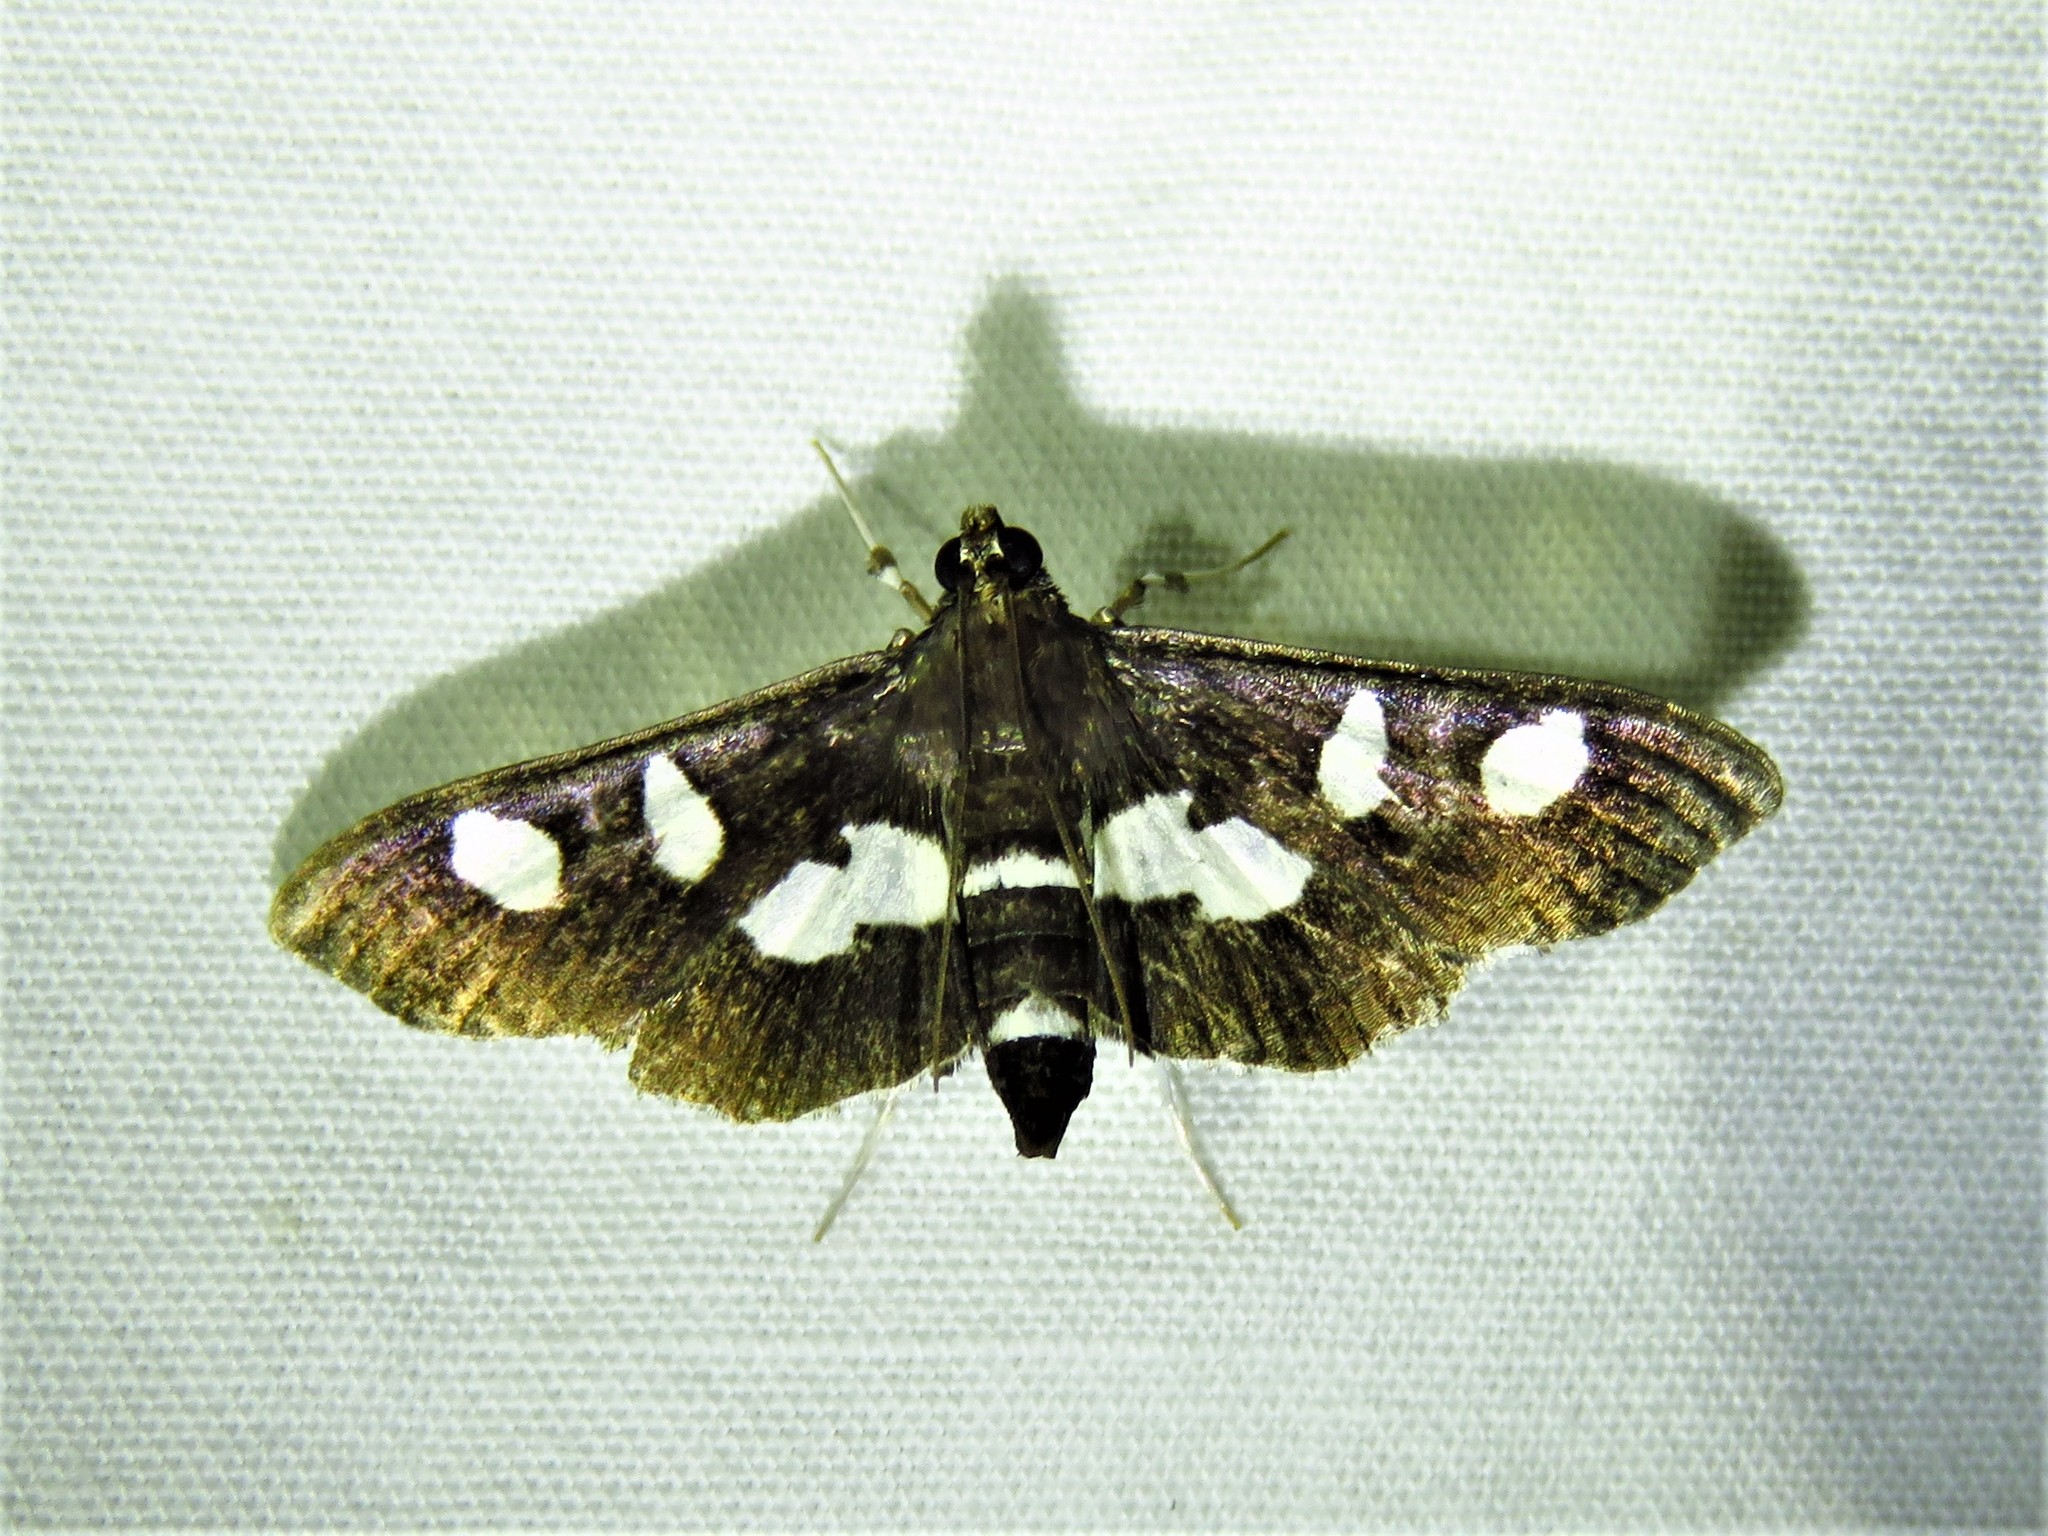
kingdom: Animalia
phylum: Arthropoda
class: Insecta
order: Lepidoptera
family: Crambidae
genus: Desmia
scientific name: Desmia
